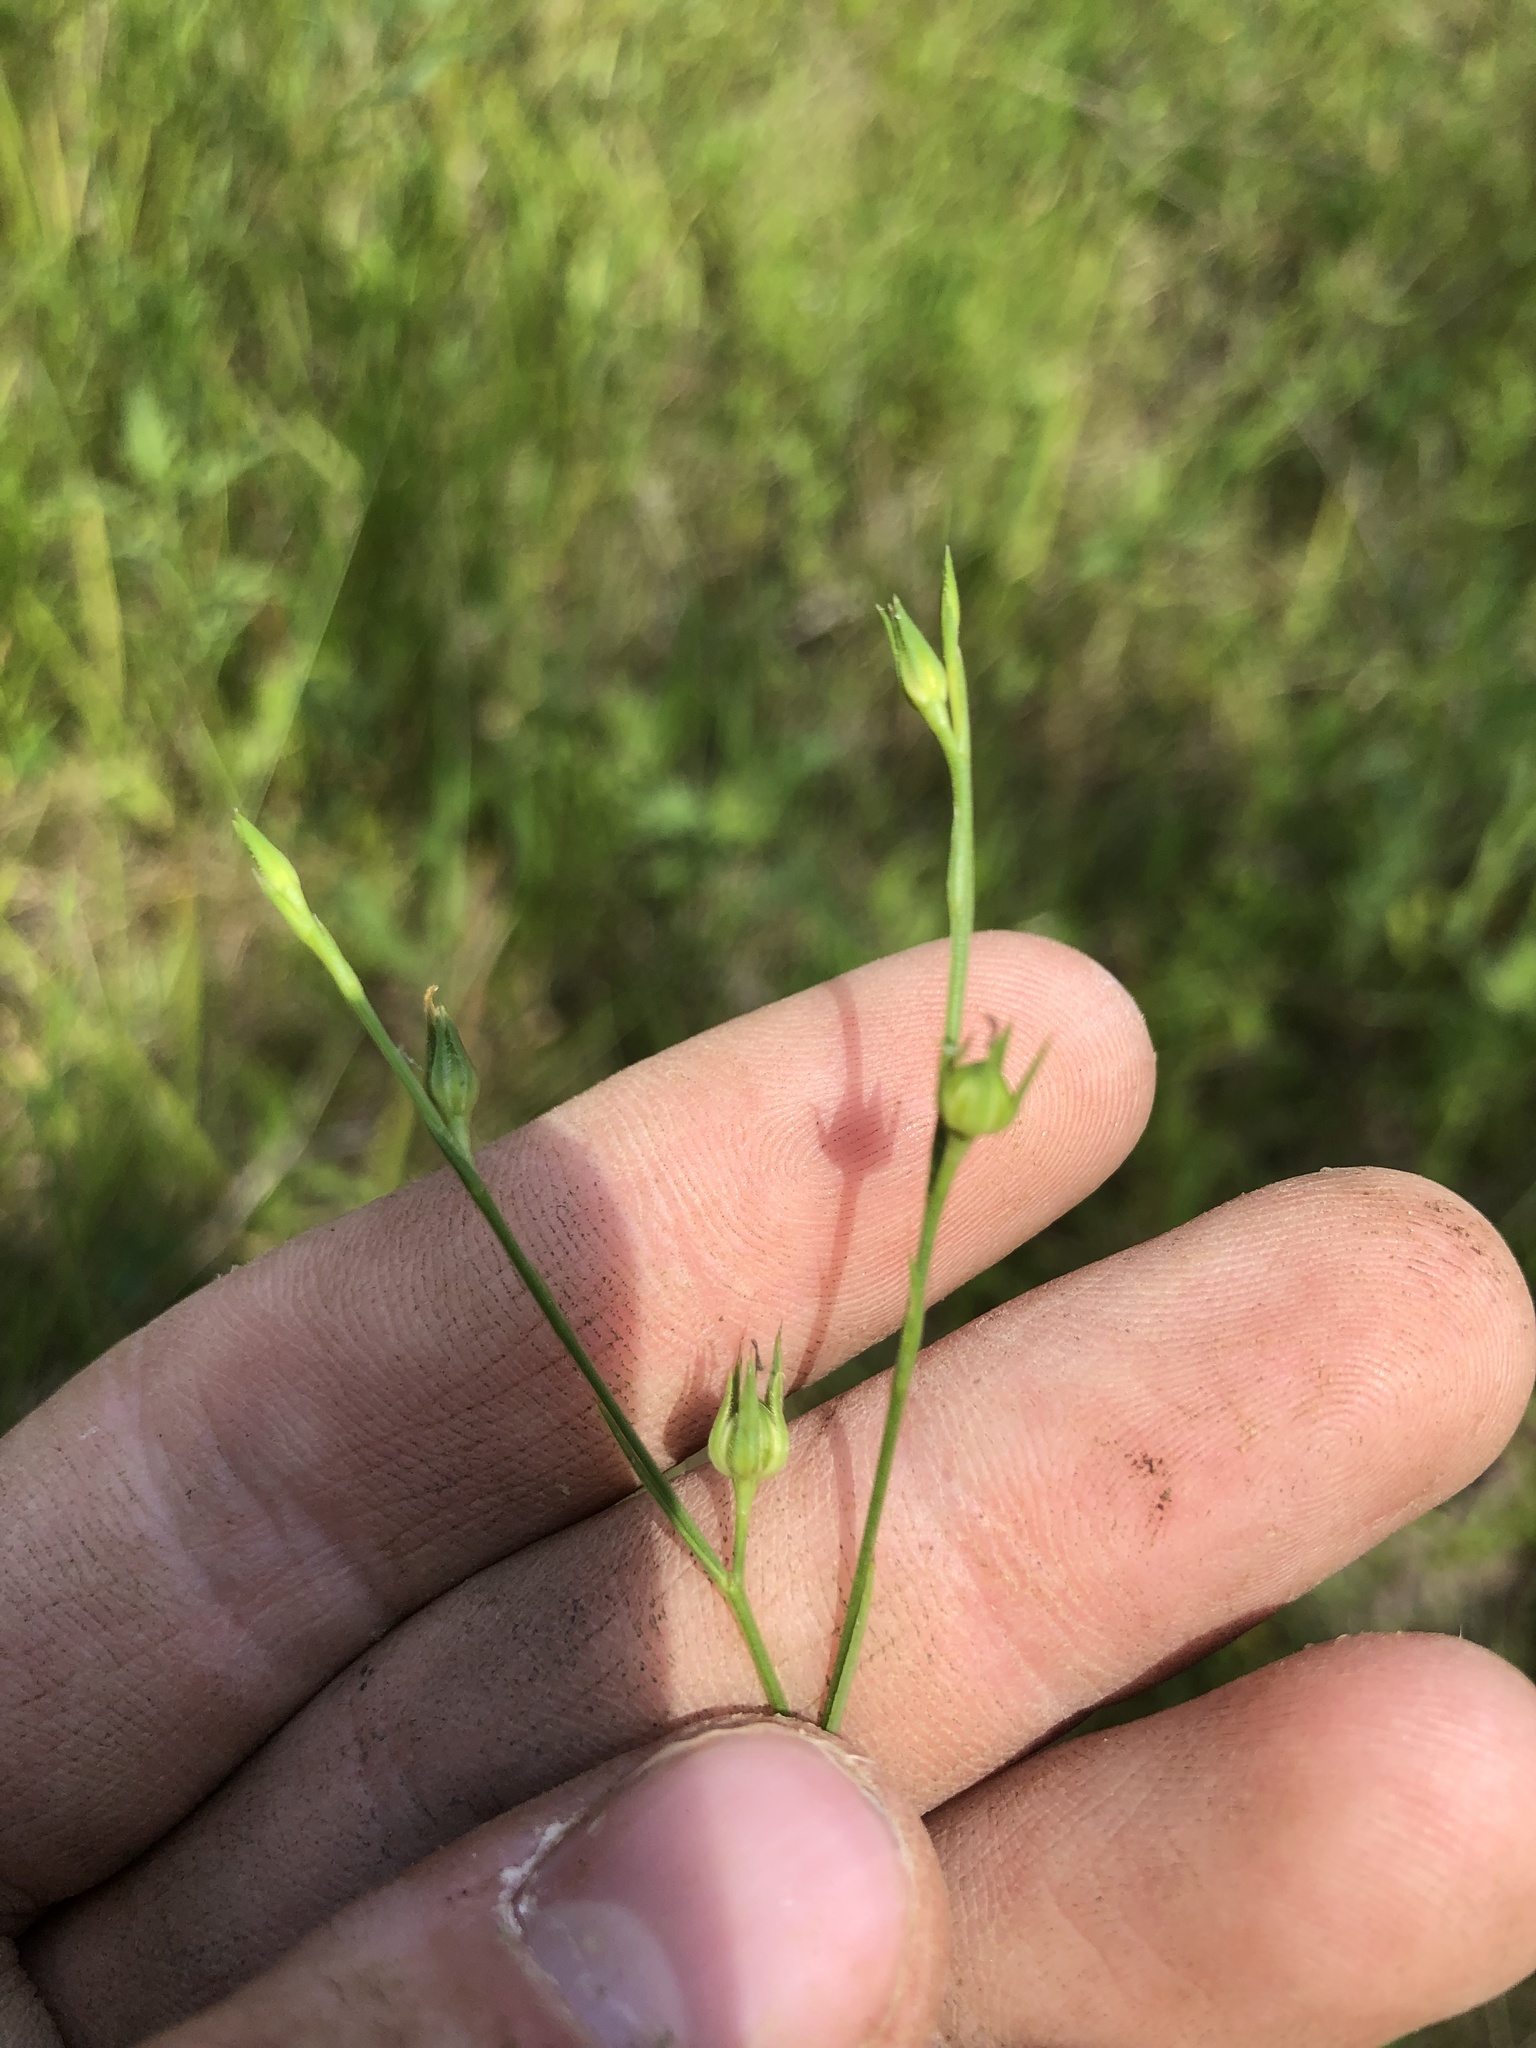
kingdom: Plantae
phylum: Tracheophyta
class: Magnoliopsida
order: Malpighiales
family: Linaceae
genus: Linum
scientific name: Linum sulcatum
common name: Grooved flax
